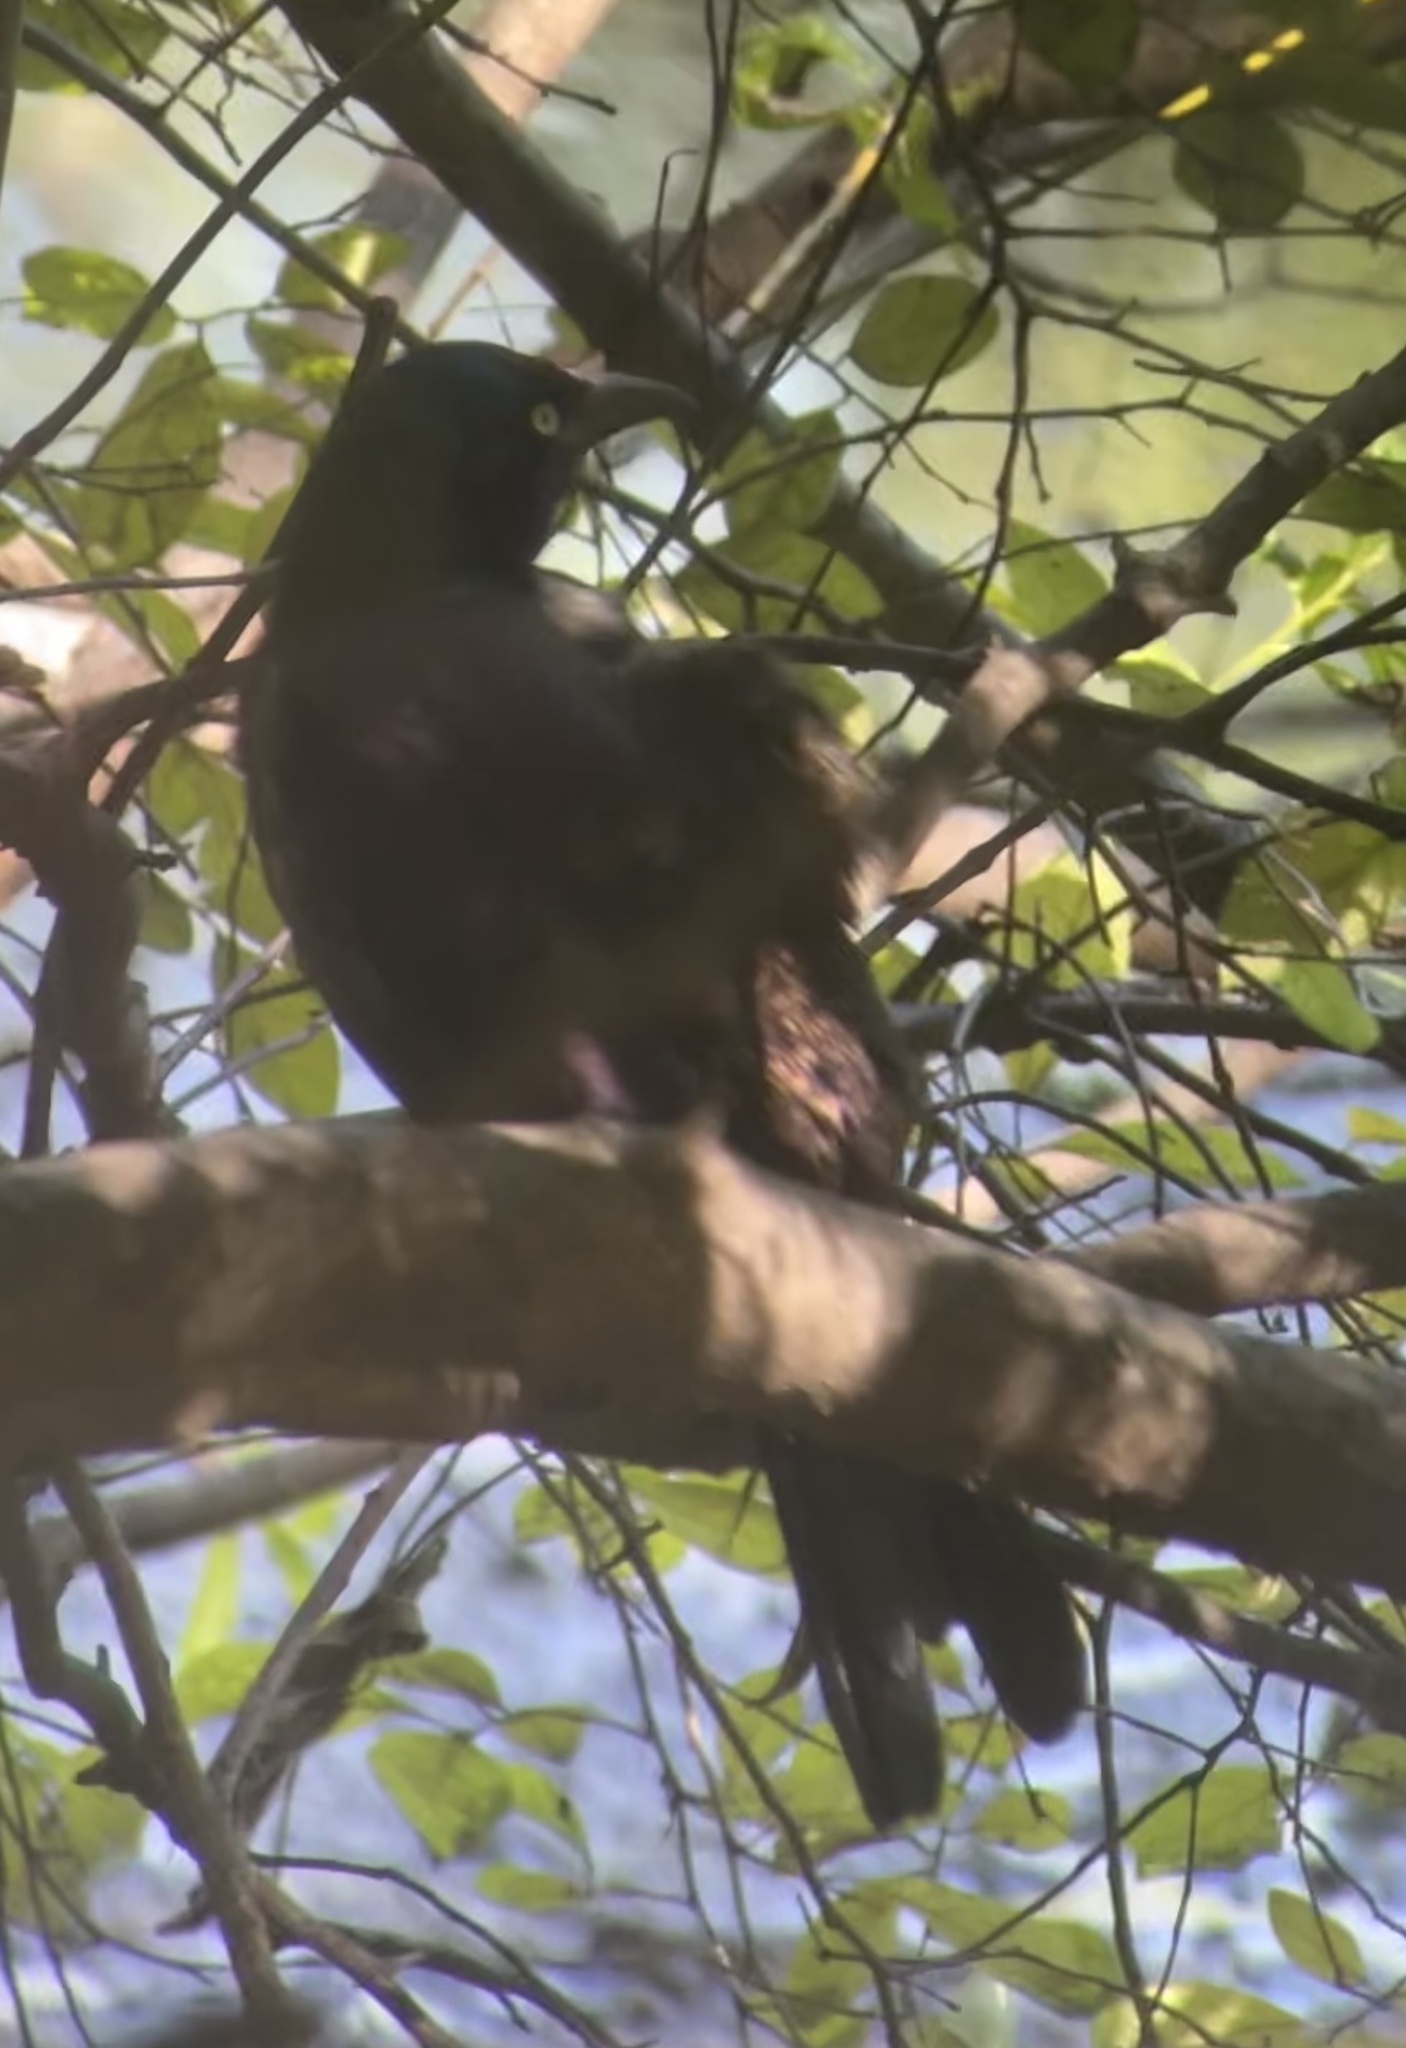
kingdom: Animalia
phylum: Chordata
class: Aves
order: Passeriformes
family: Icteridae
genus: Quiscalus
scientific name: Quiscalus quiscula
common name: Common grackle
